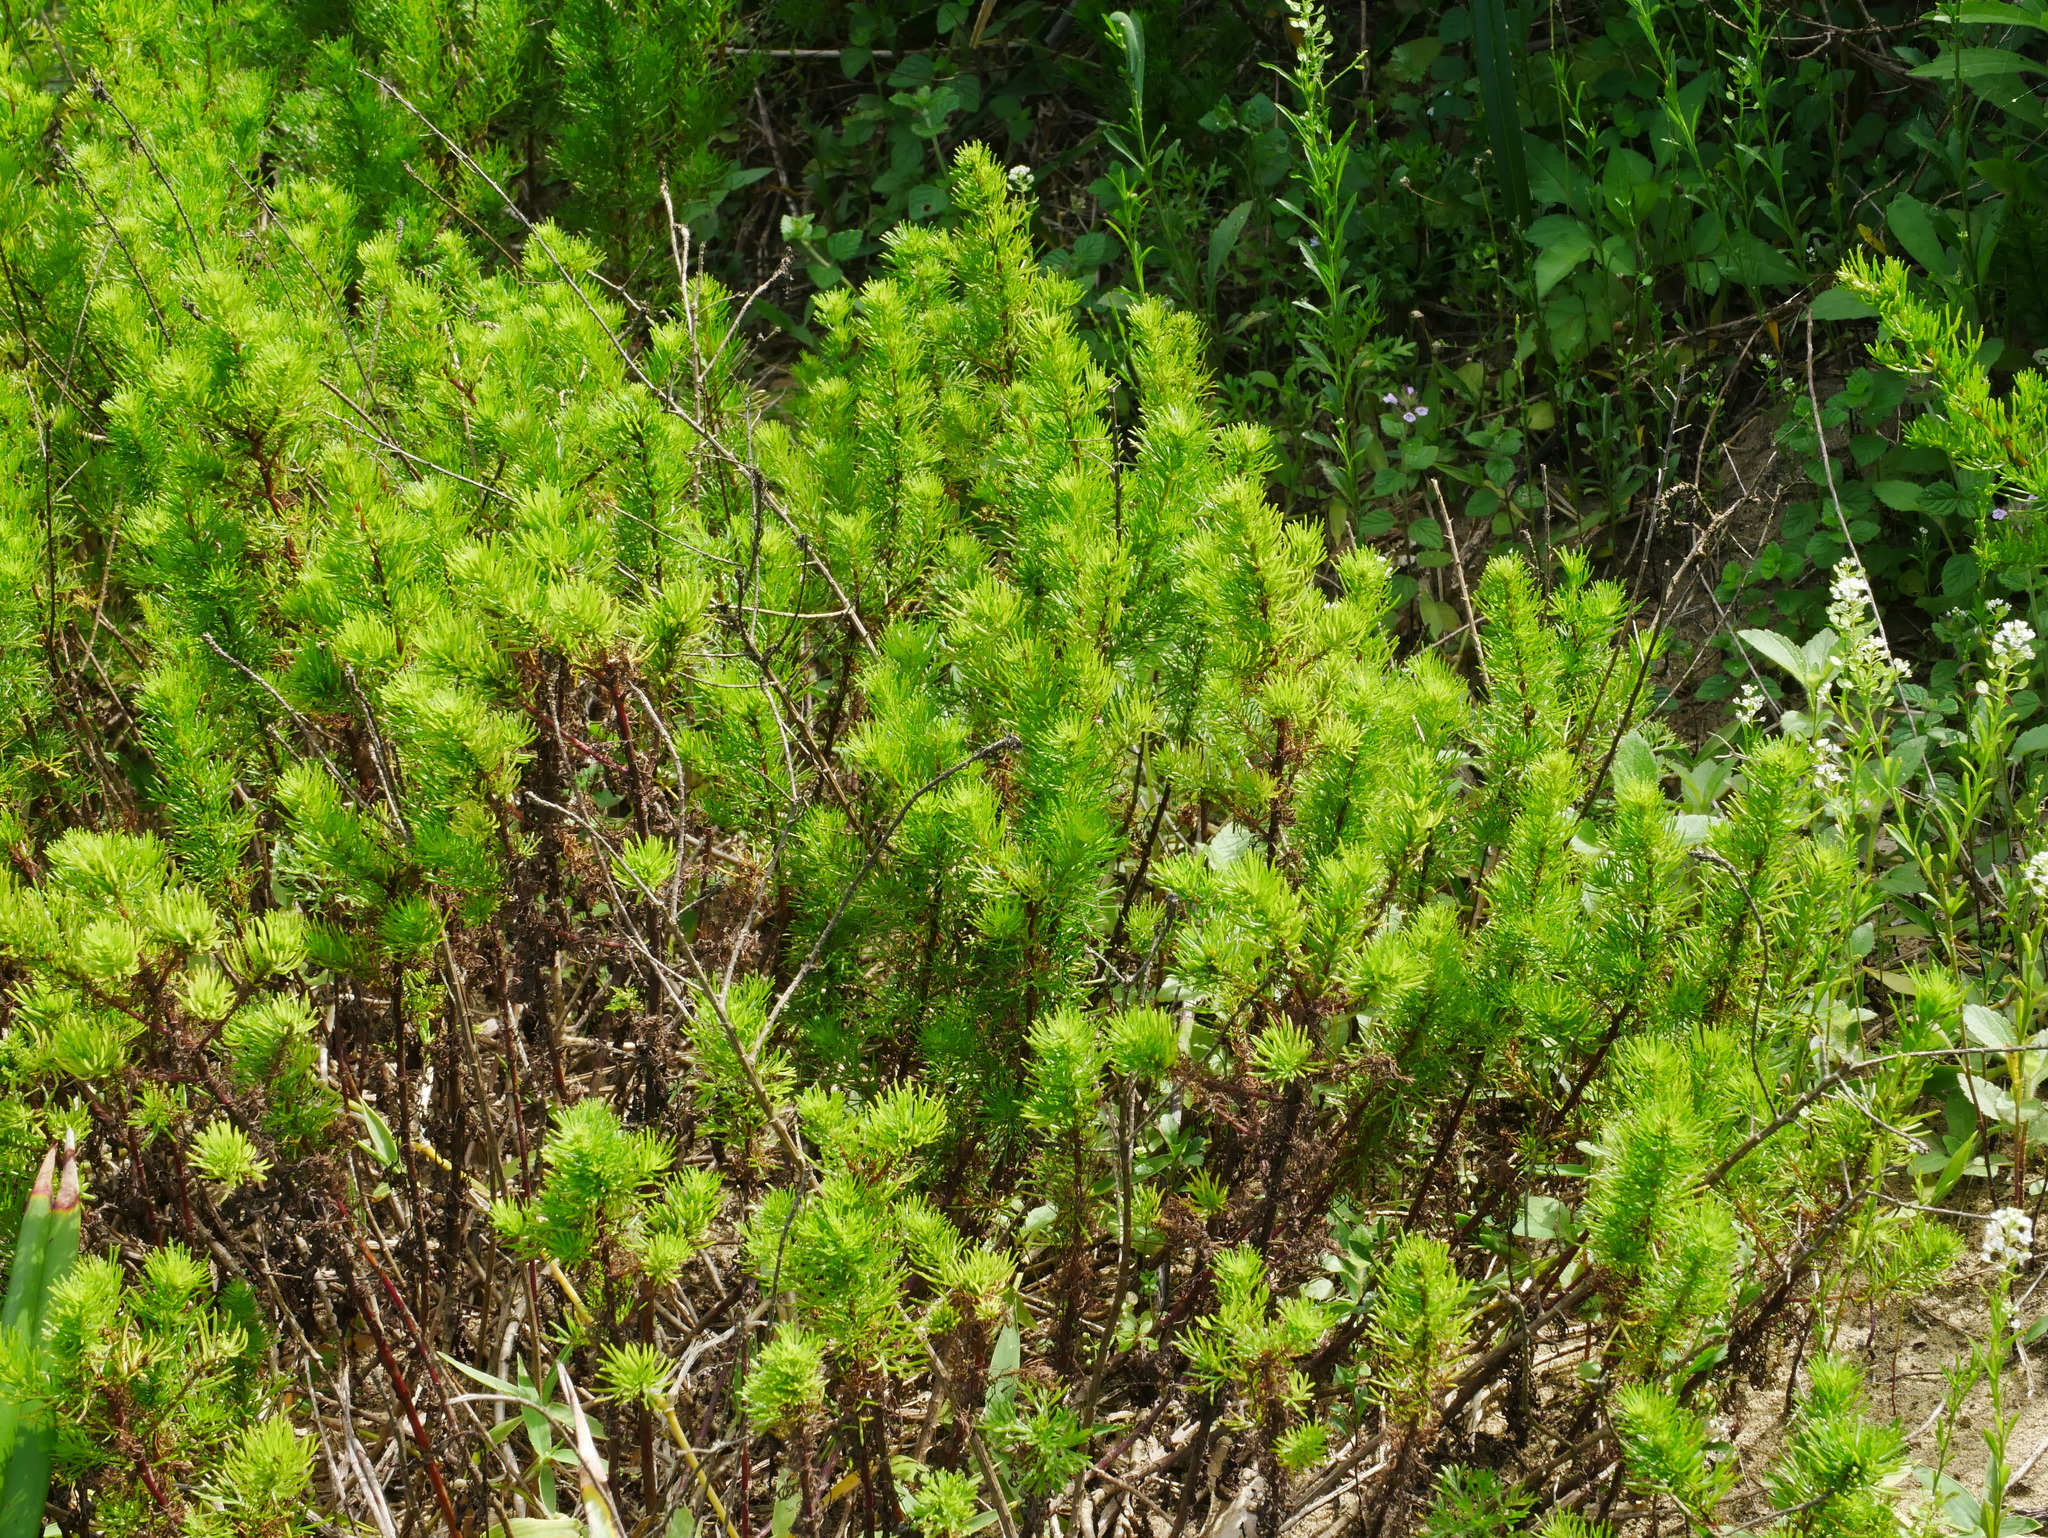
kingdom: Plantae
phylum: Tracheophyta
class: Magnoliopsida
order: Asterales
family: Asteraceae
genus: Artemisia
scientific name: Artemisia capillaris
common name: Yin-chen wormwood
